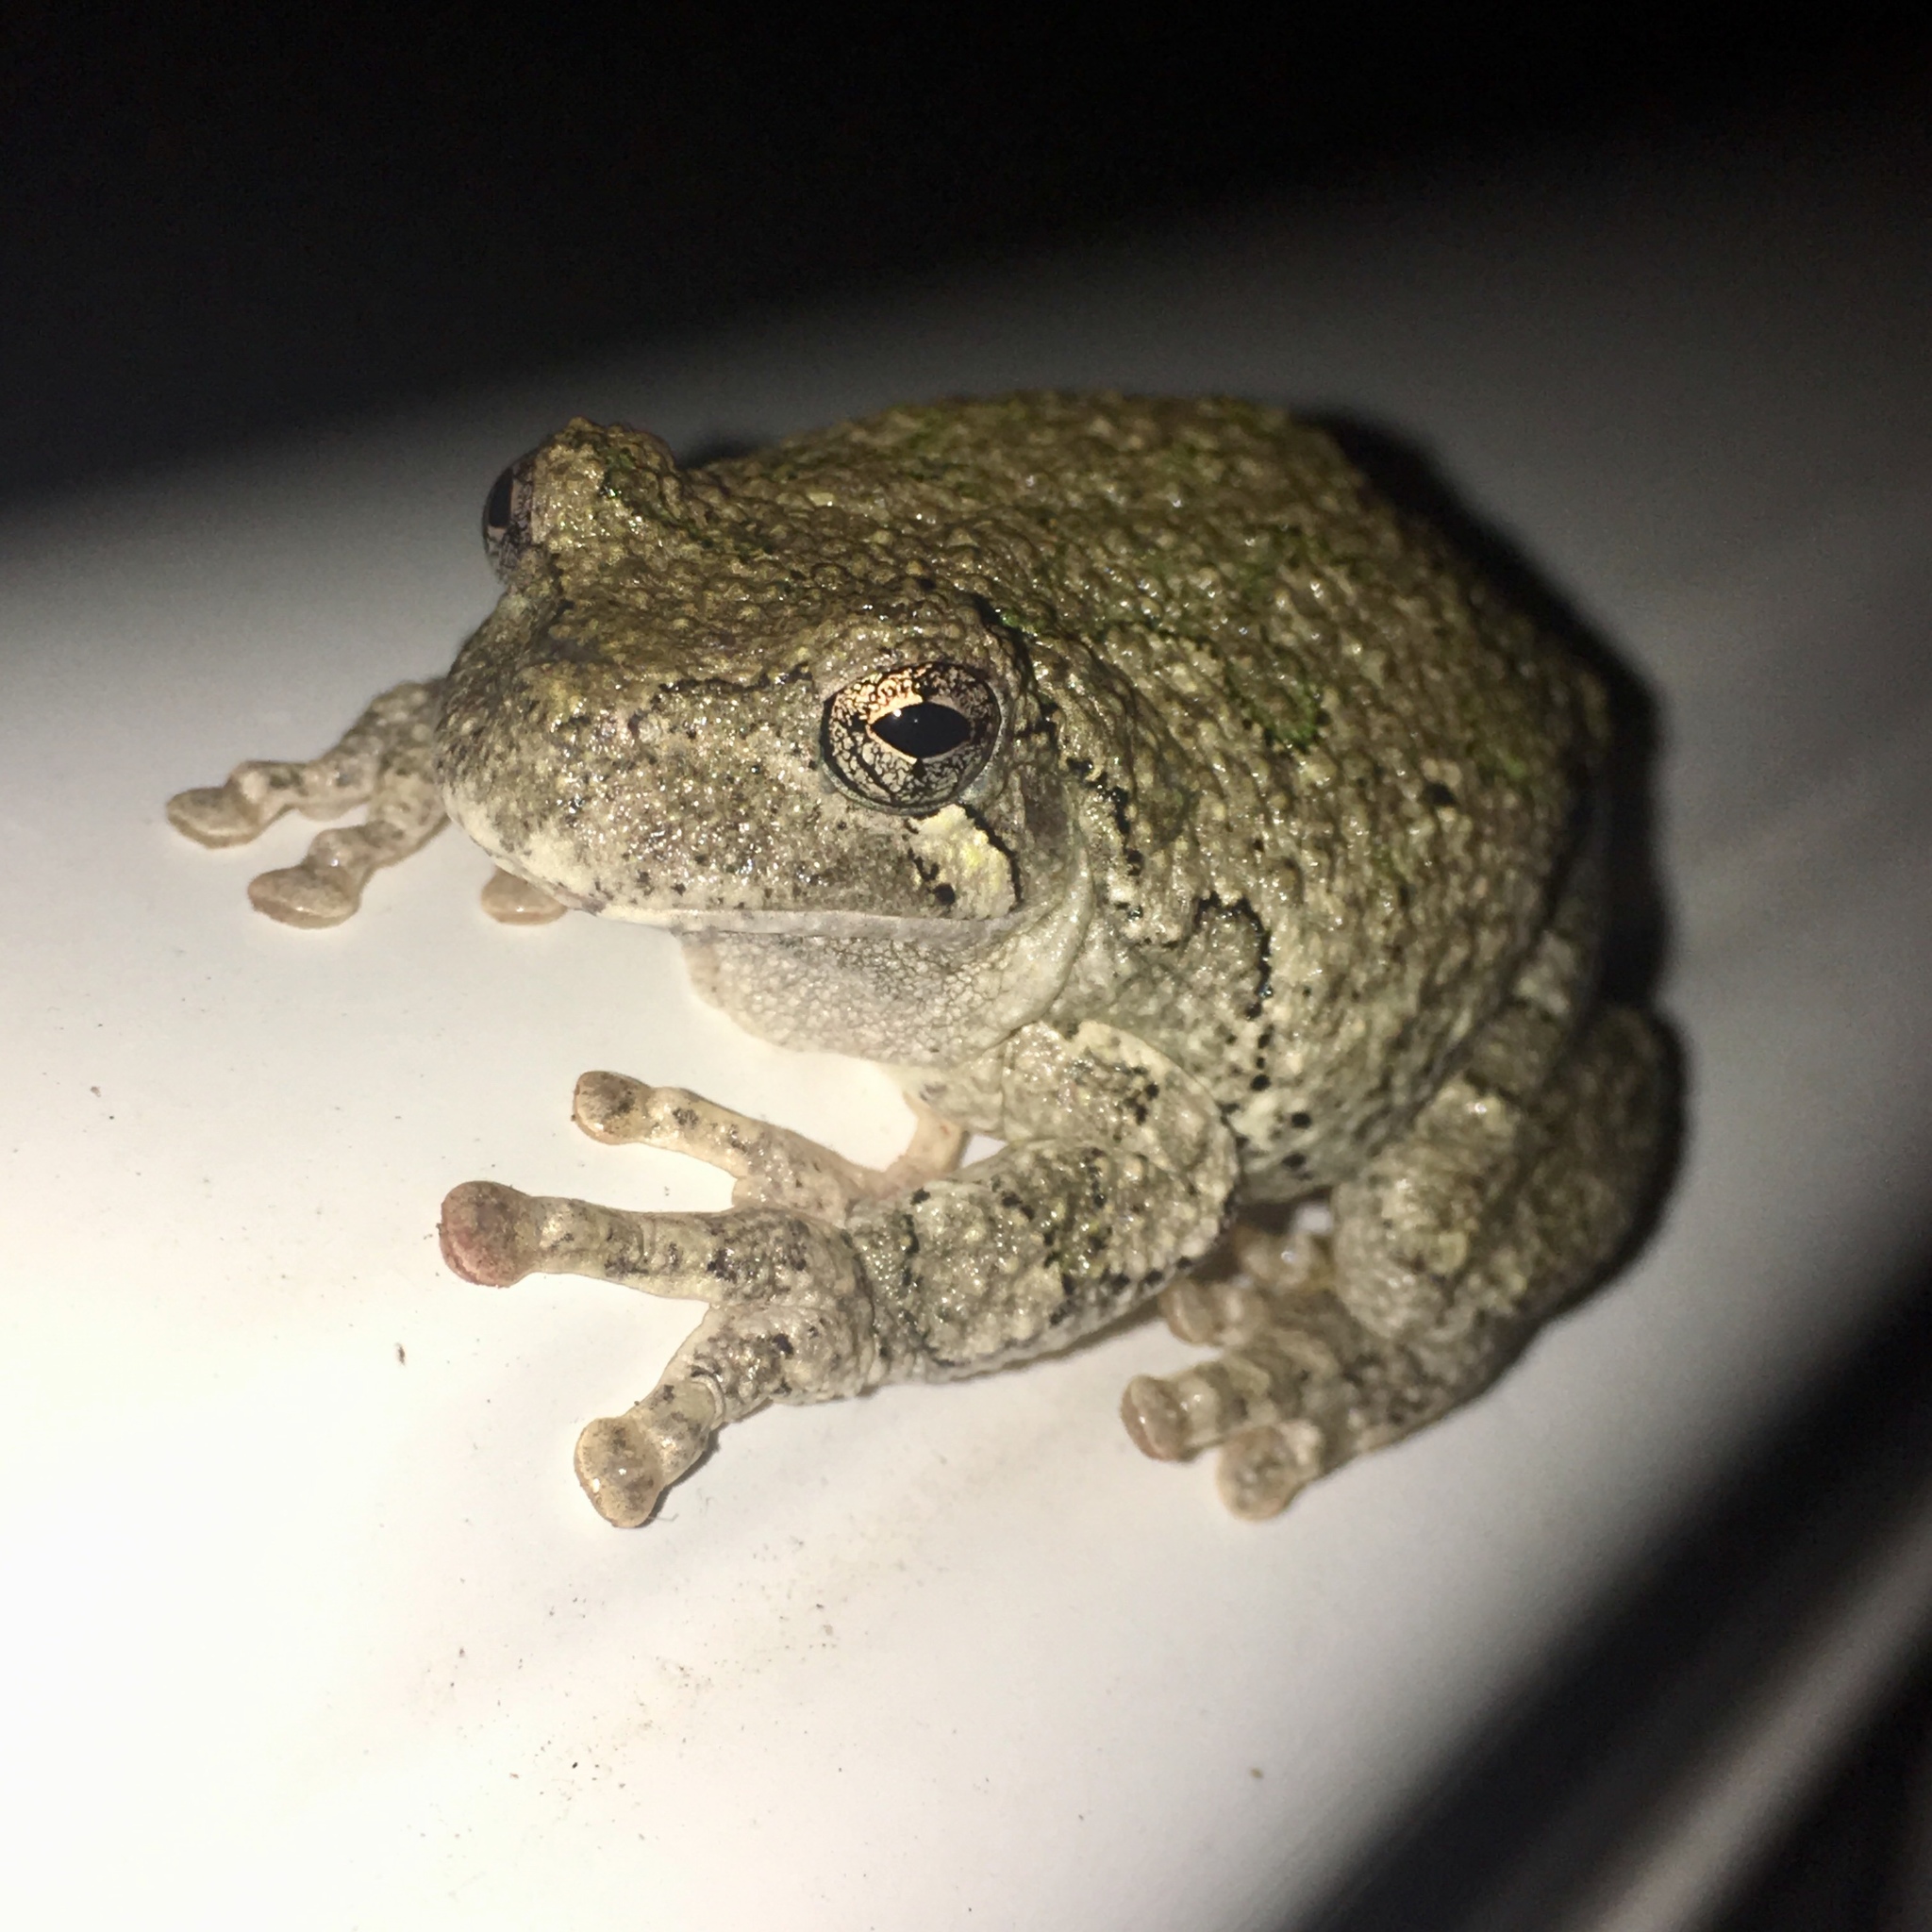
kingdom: Animalia
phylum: Chordata
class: Amphibia
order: Anura
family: Hylidae
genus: Hyla
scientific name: Hyla
